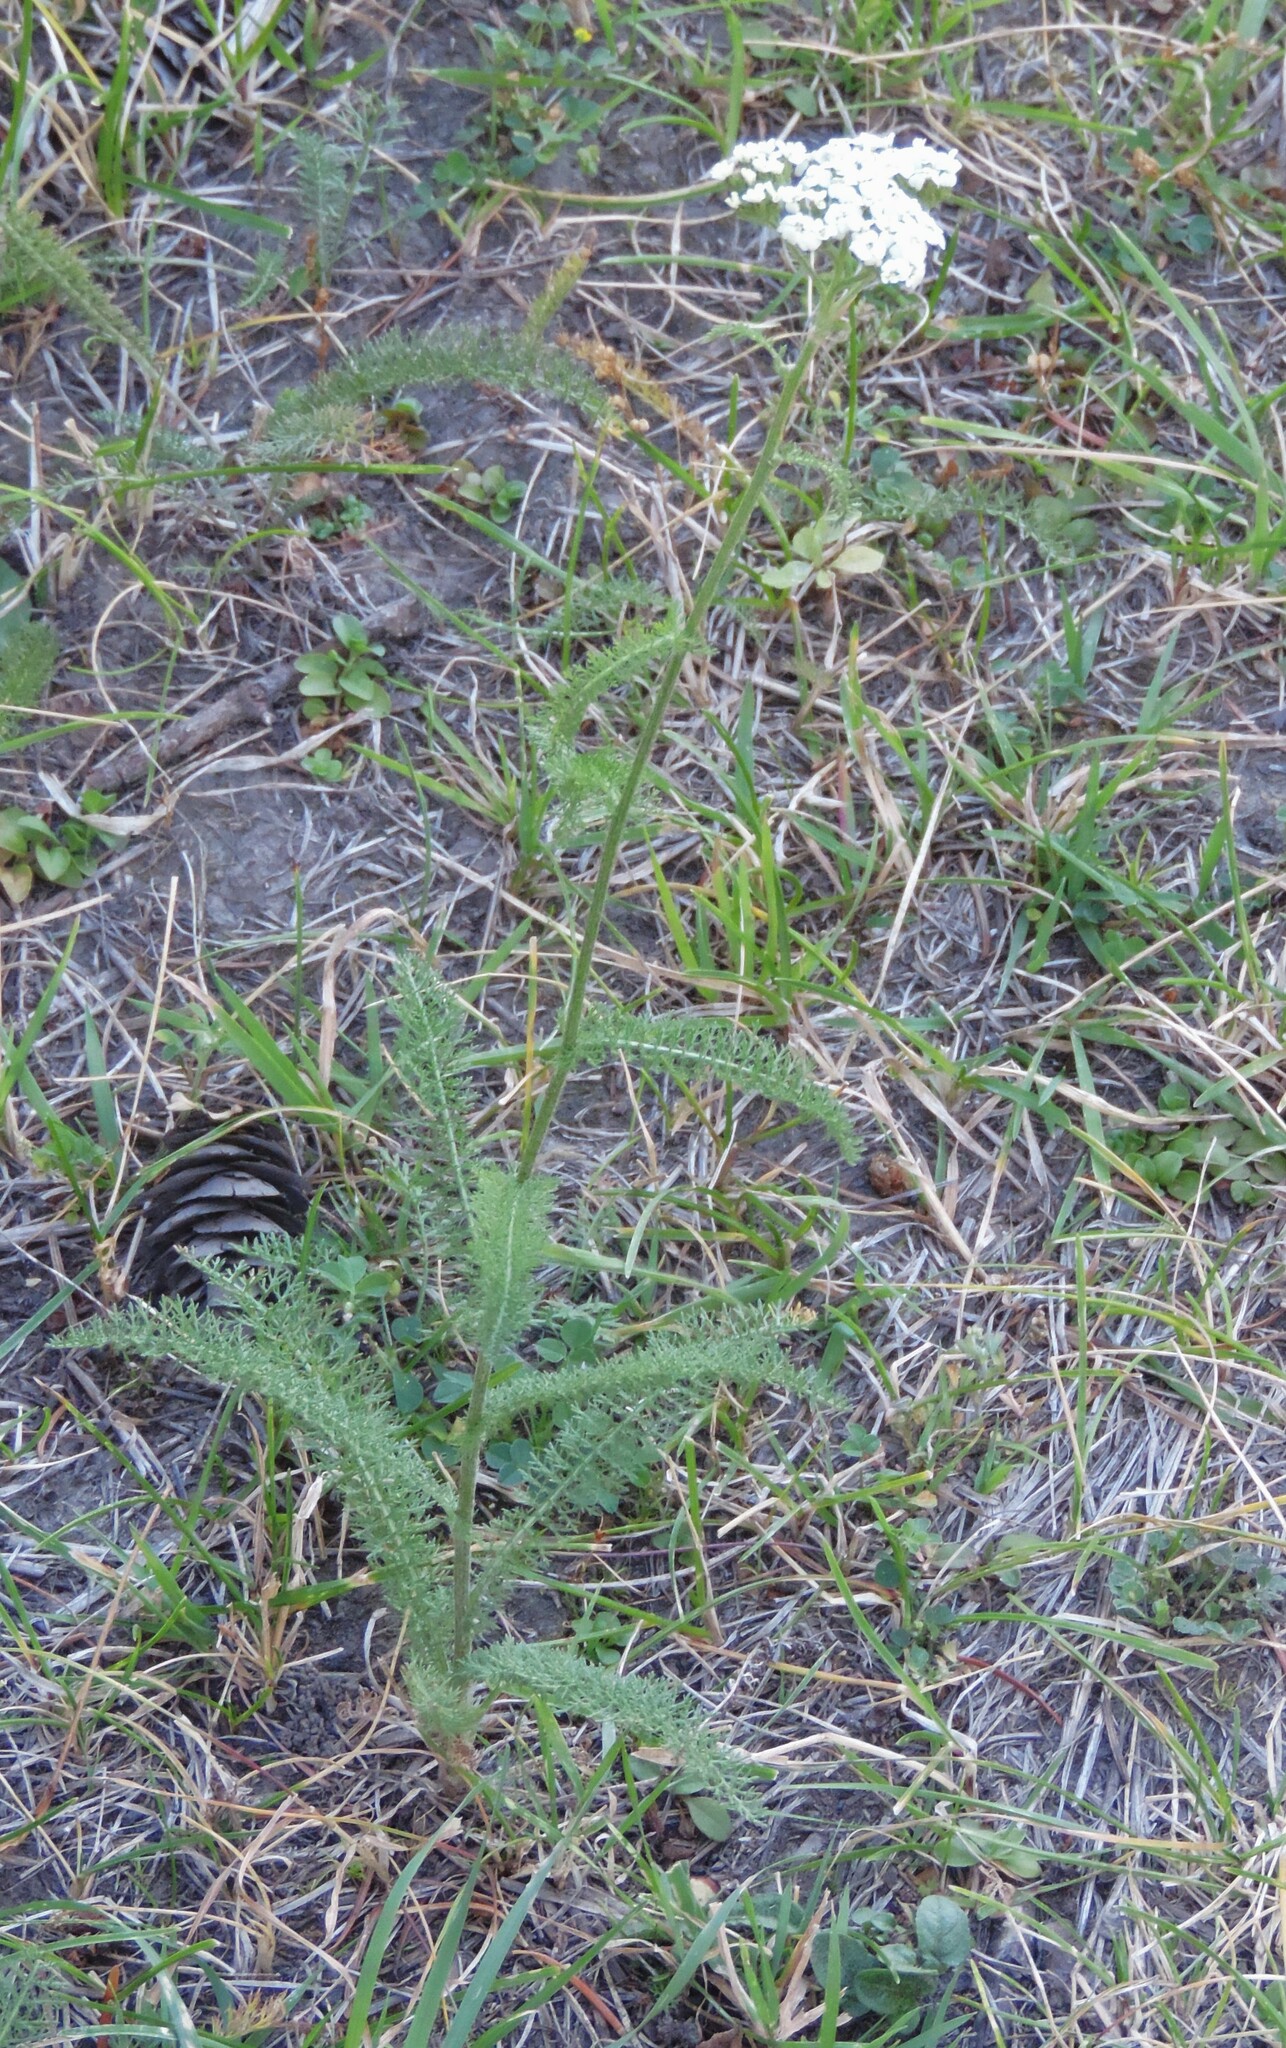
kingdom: Plantae
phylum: Tracheophyta
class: Magnoliopsida
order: Asterales
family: Asteraceae
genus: Achillea
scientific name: Achillea millefolium
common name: Yarrow
